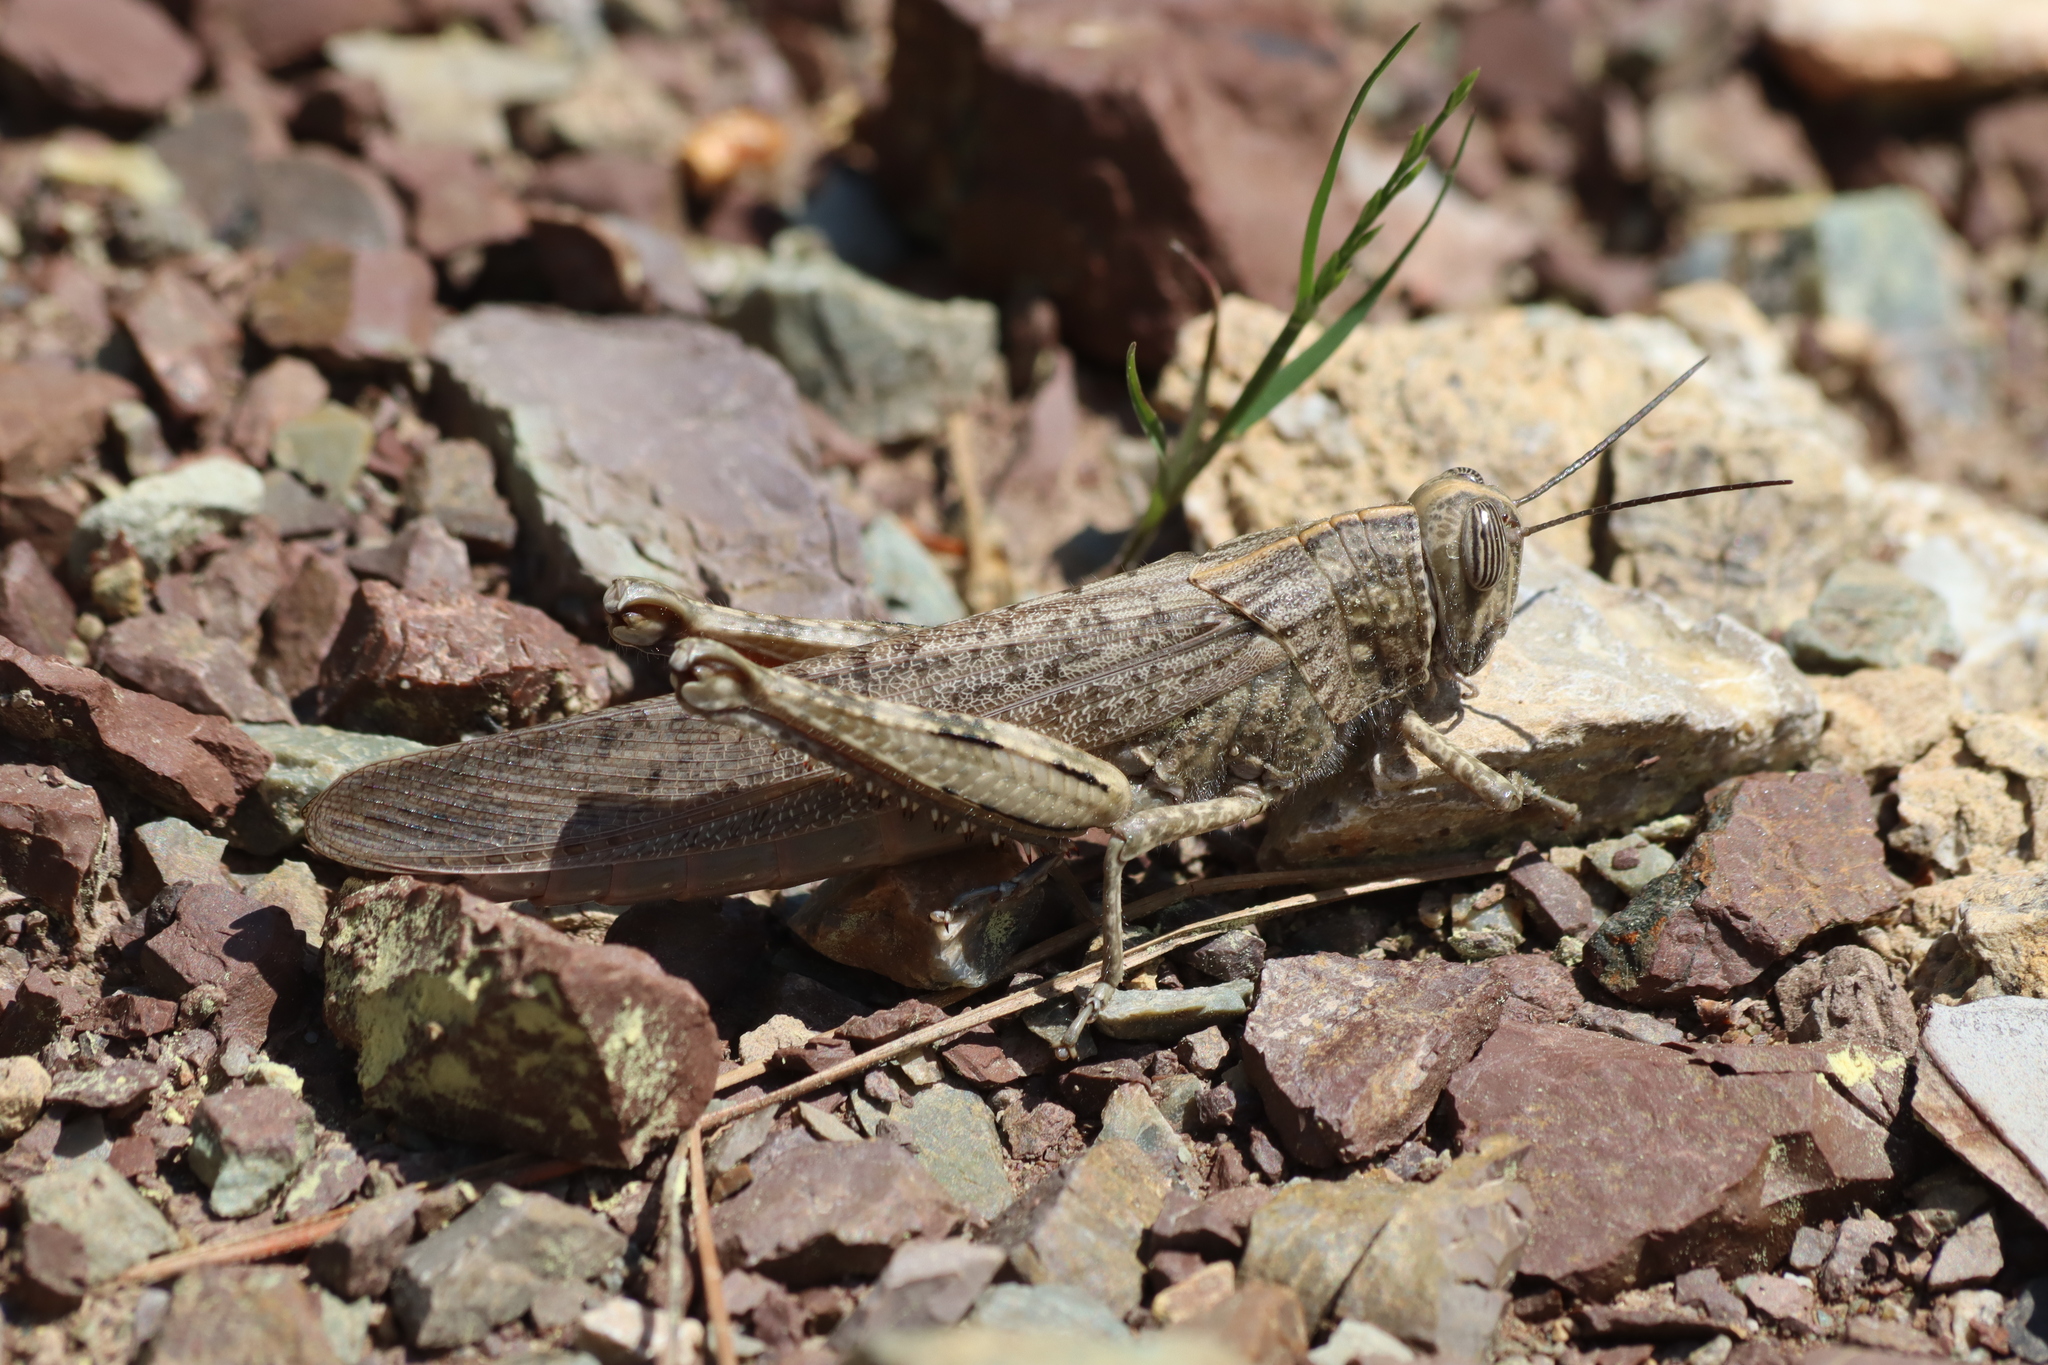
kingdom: Animalia
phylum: Arthropoda
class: Insecta
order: Orthoptera
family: Acrididae
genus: Anacridium
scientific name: Anacridium aegyptium
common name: Egyptian grasshopper
